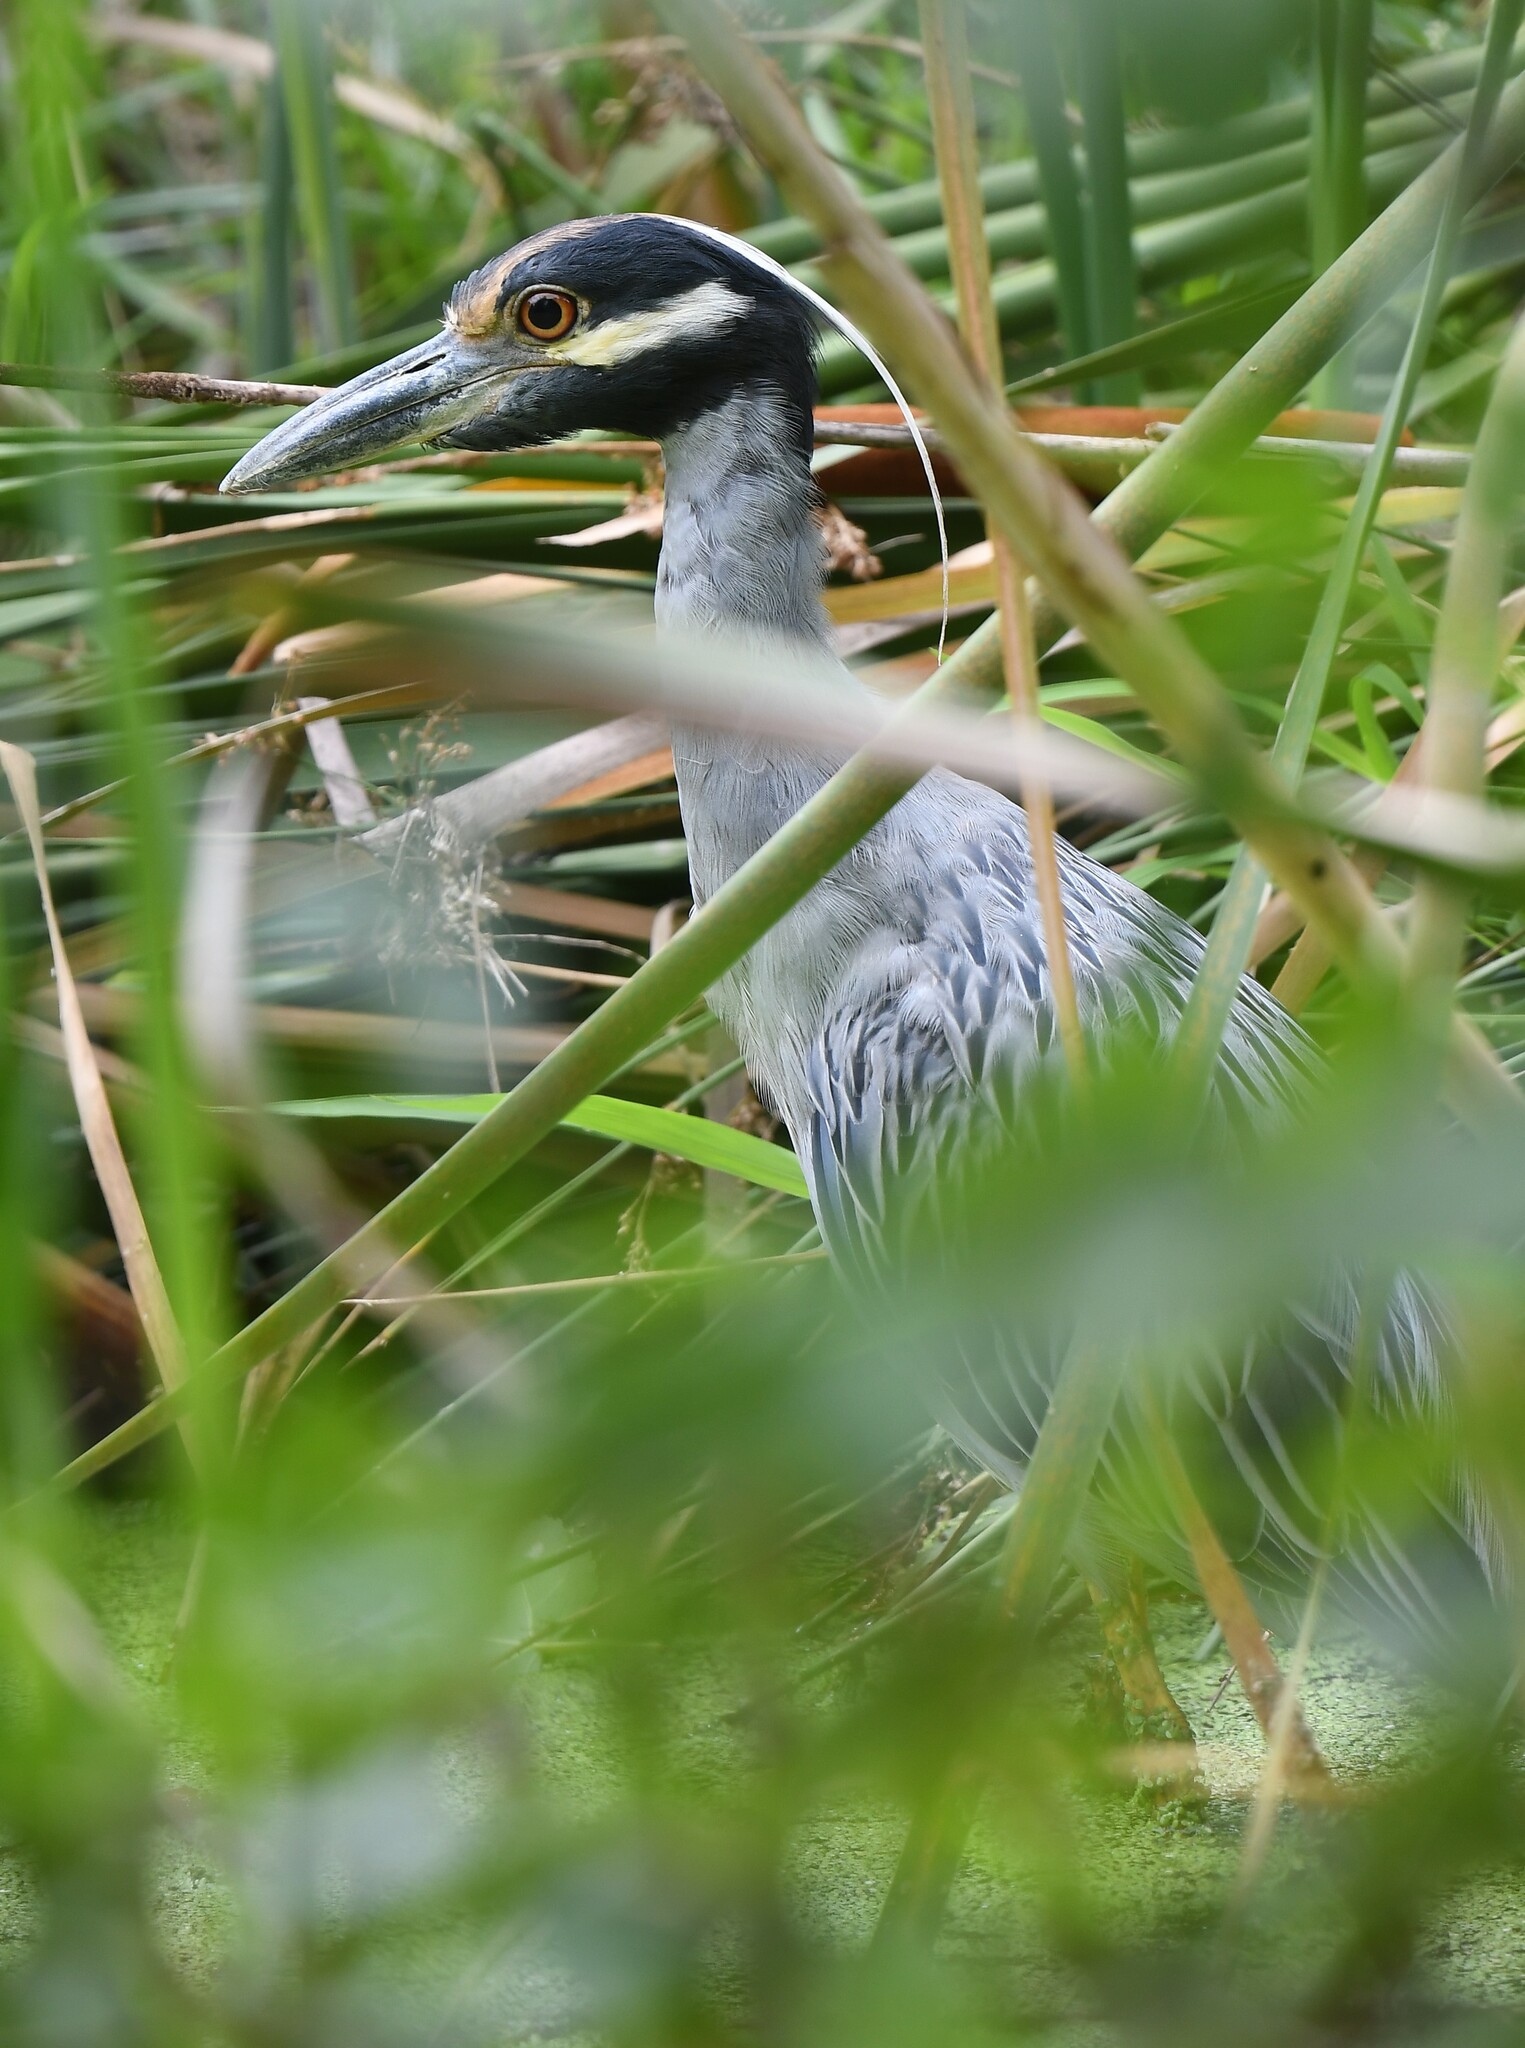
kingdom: Animalia
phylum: Chordata
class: Aves
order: Pelecaniformes
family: Ardeidae
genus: Nyctanassa
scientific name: Nyctanassa violacea
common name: Yellow-crowned night heron
